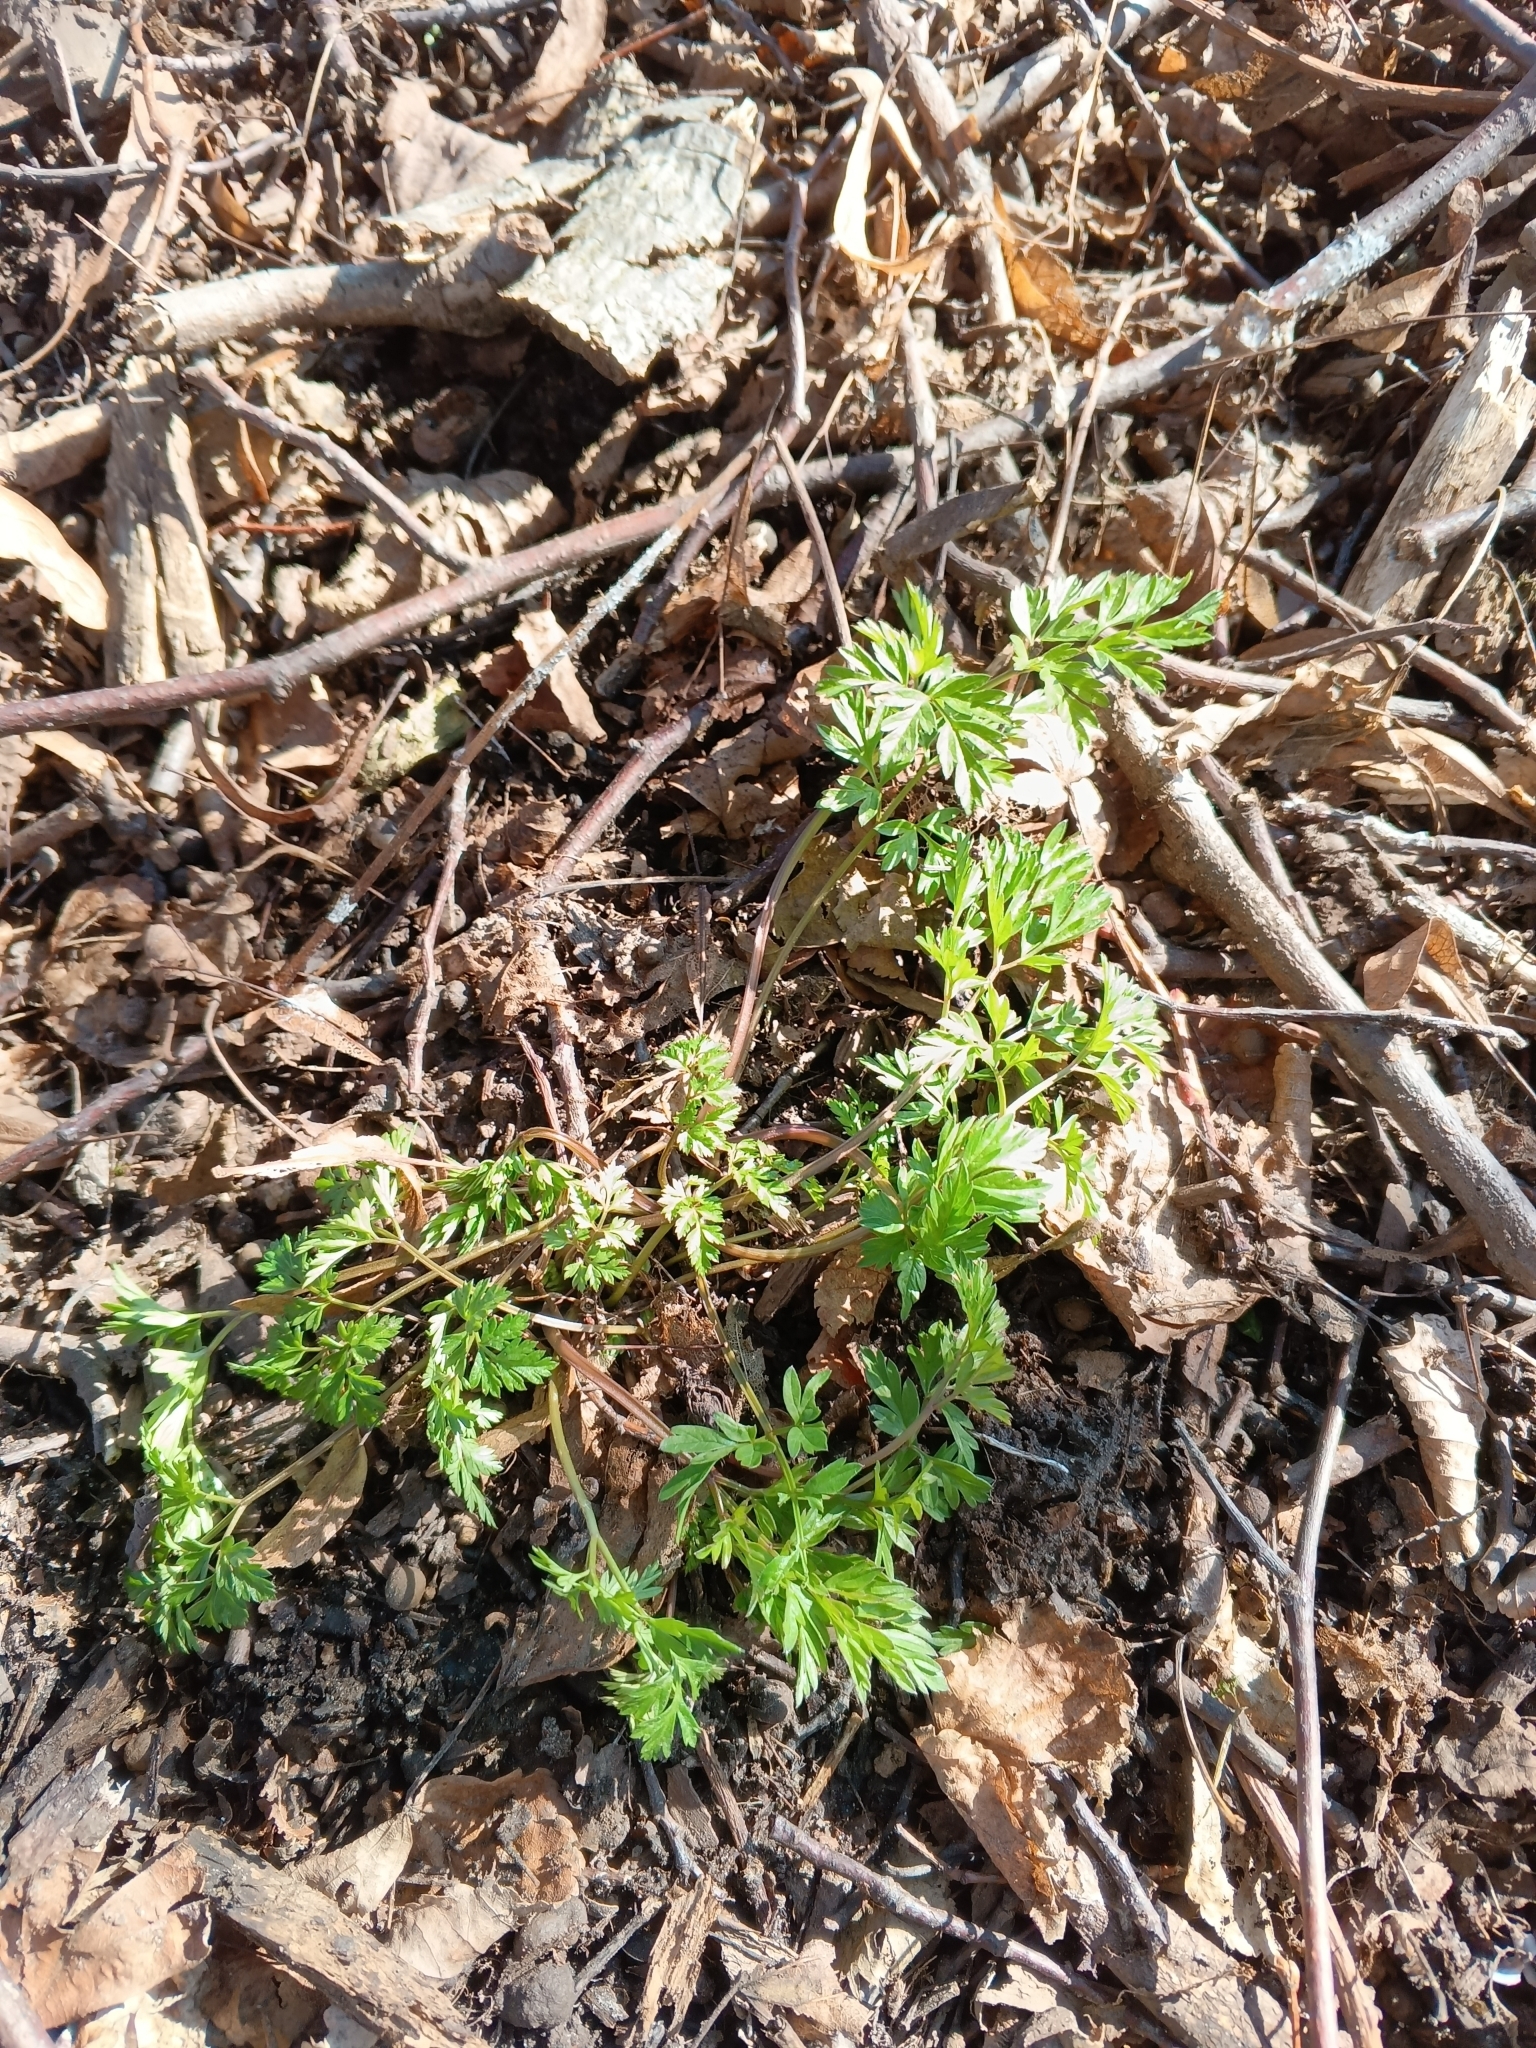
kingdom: Plantae
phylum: Tracheophyta
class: Magnoliopsida
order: Apiales
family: Apiaceae
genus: Anthriscus
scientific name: Anthriscus sylvestris
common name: Cow parsley
